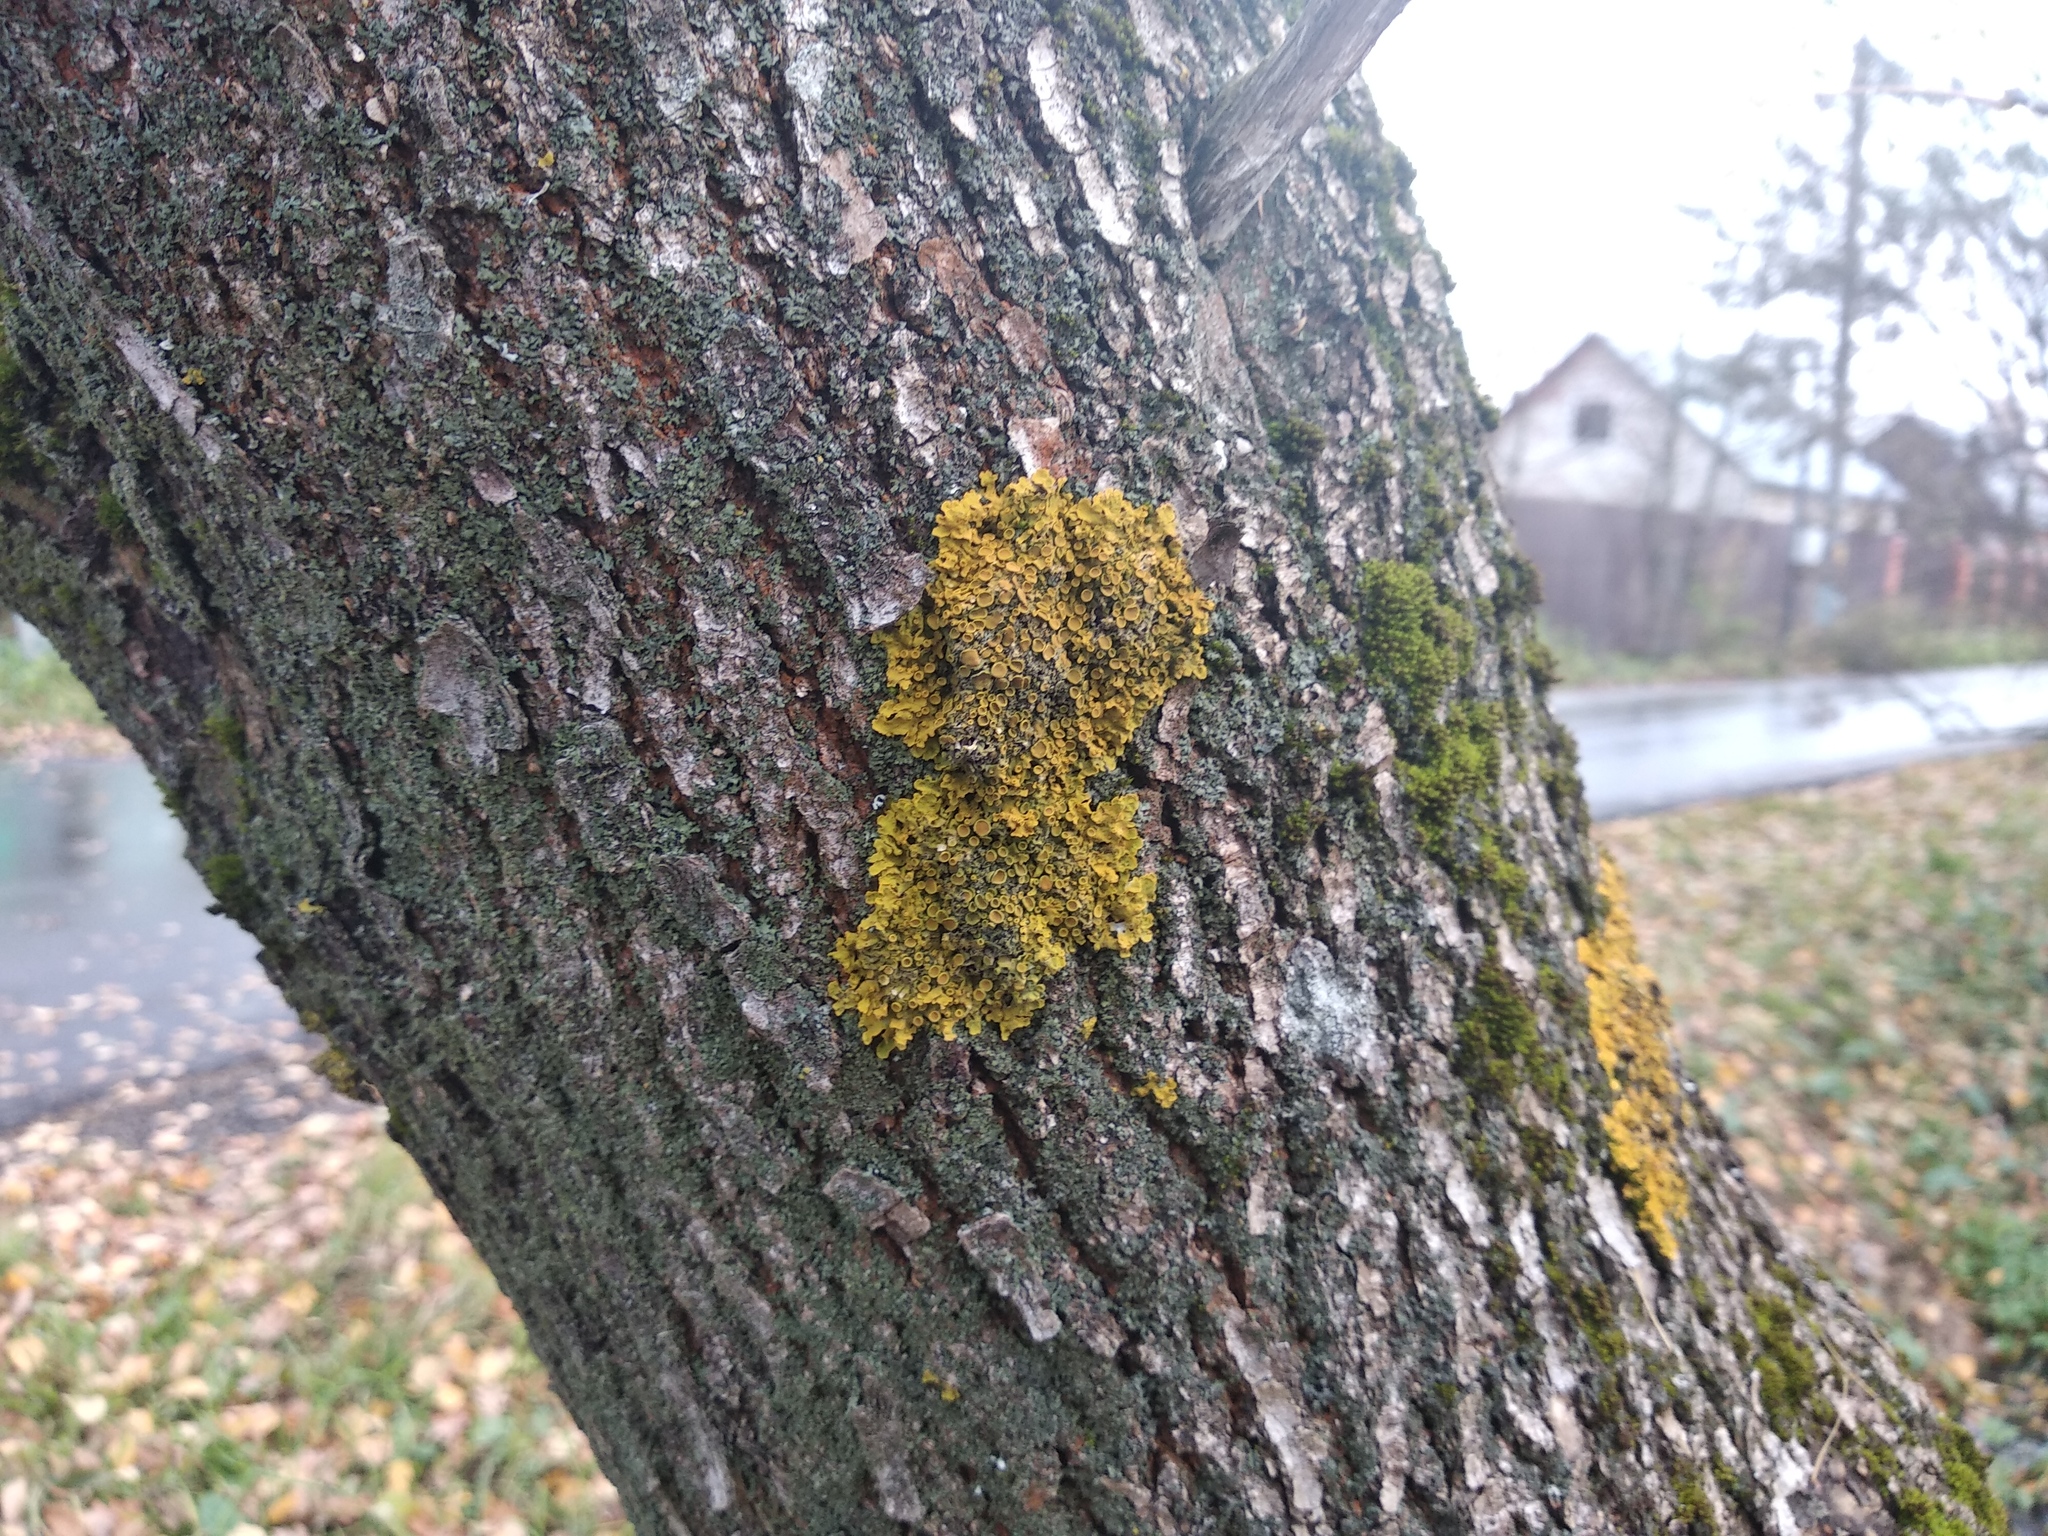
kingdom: Fungi
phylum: Ascomycota
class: Lecanoromycetes
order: Teloschistales
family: Teloschistaceae
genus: Xanthoria
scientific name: Xanthoria parietina
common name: Common orange lichen
